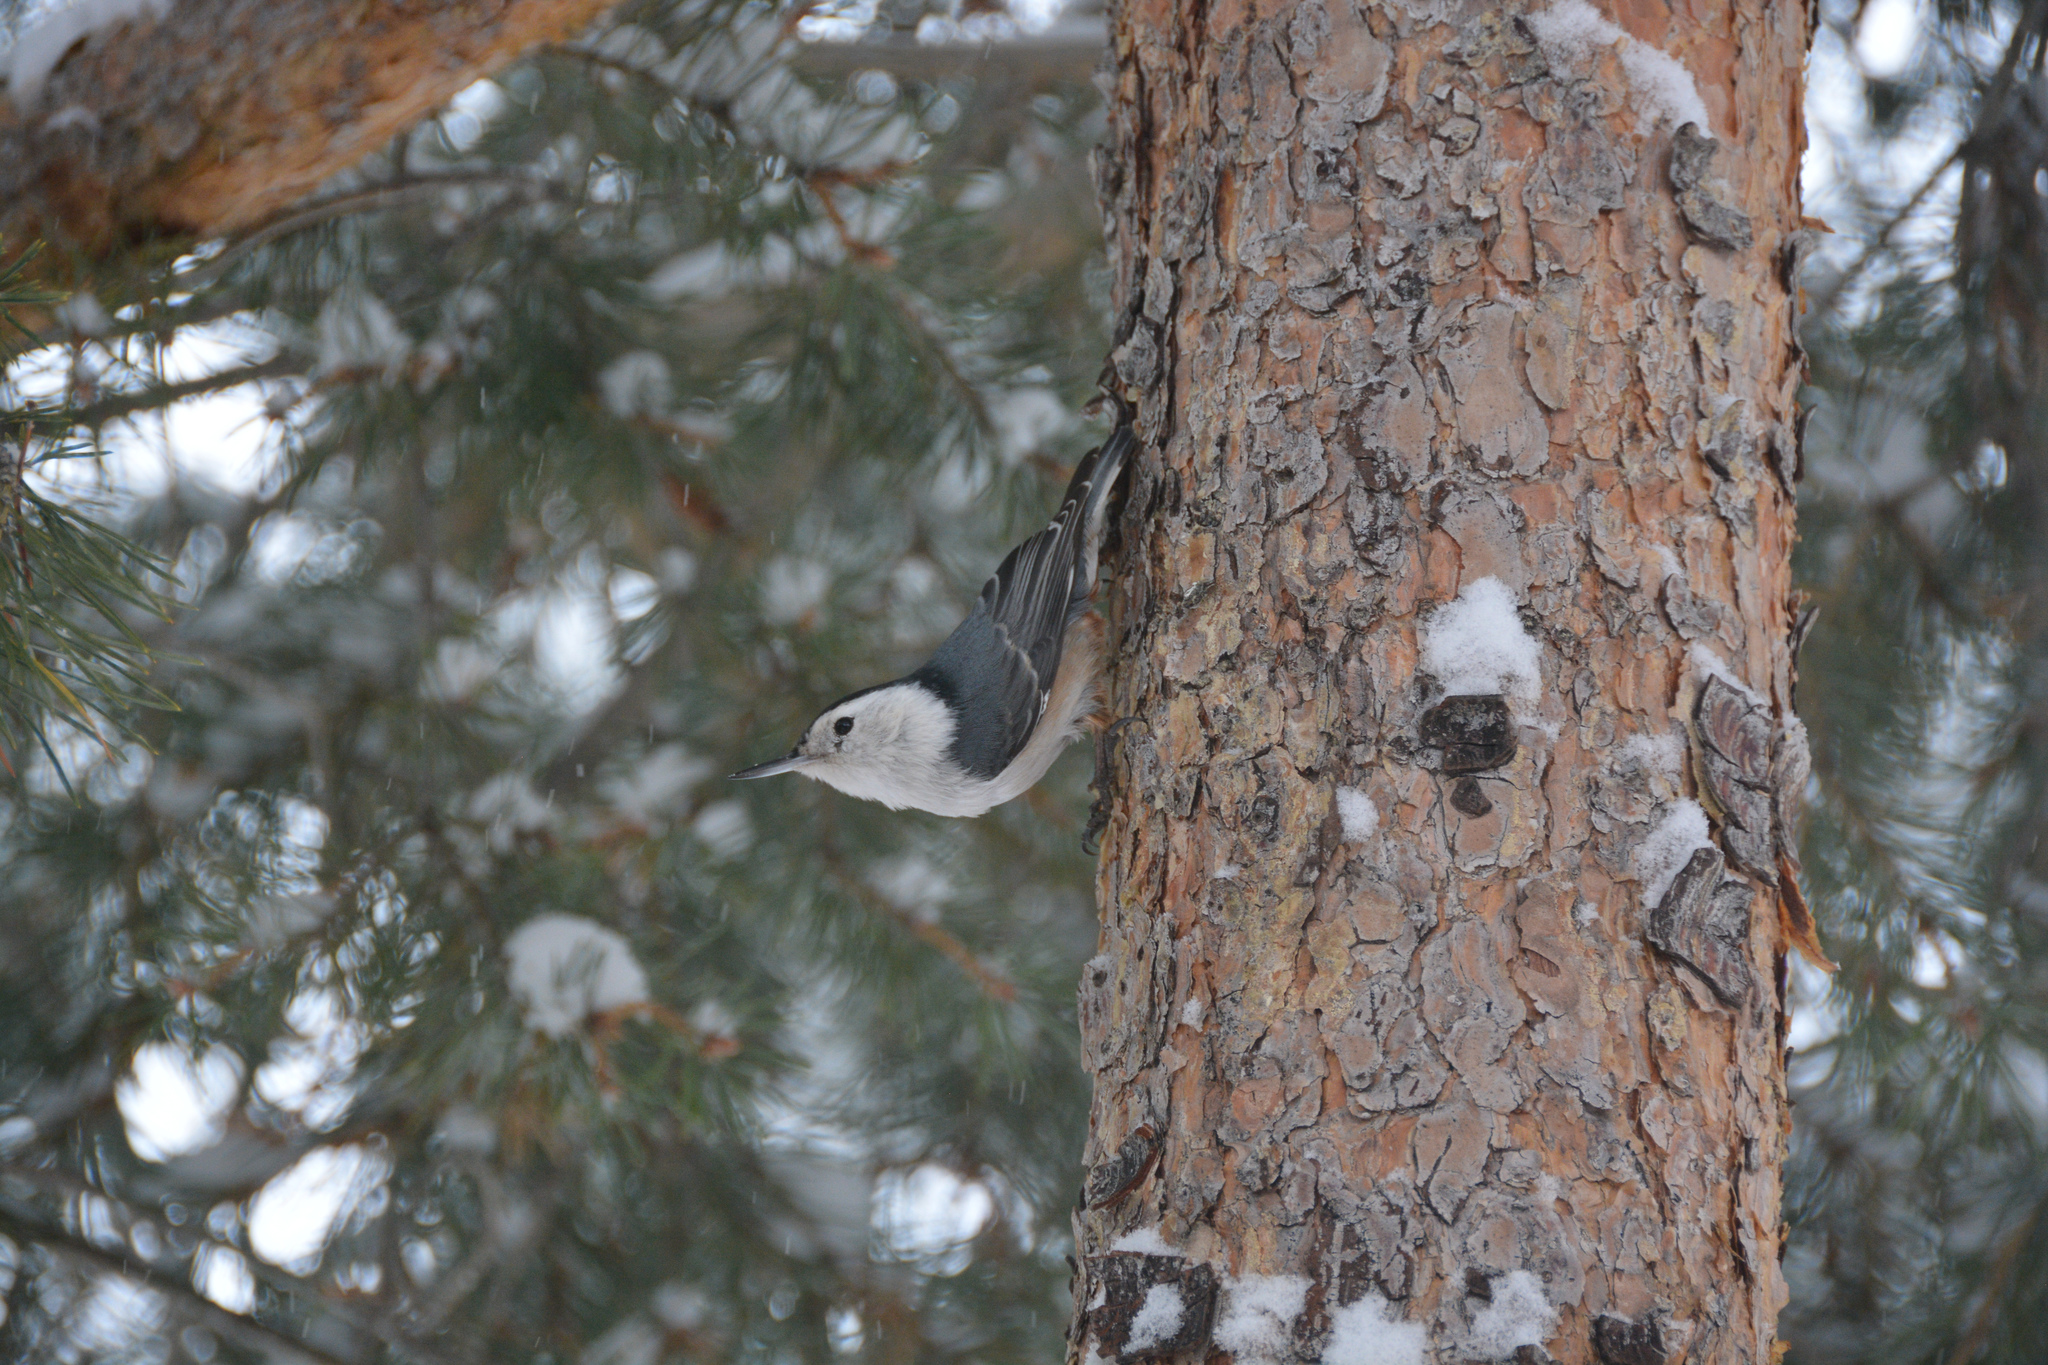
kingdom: Animalia
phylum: Chordata
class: Aves
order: Passeriformes
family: Sittidae
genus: Sitta
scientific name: Sitta carolinensis
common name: White-breasted nuthatch
